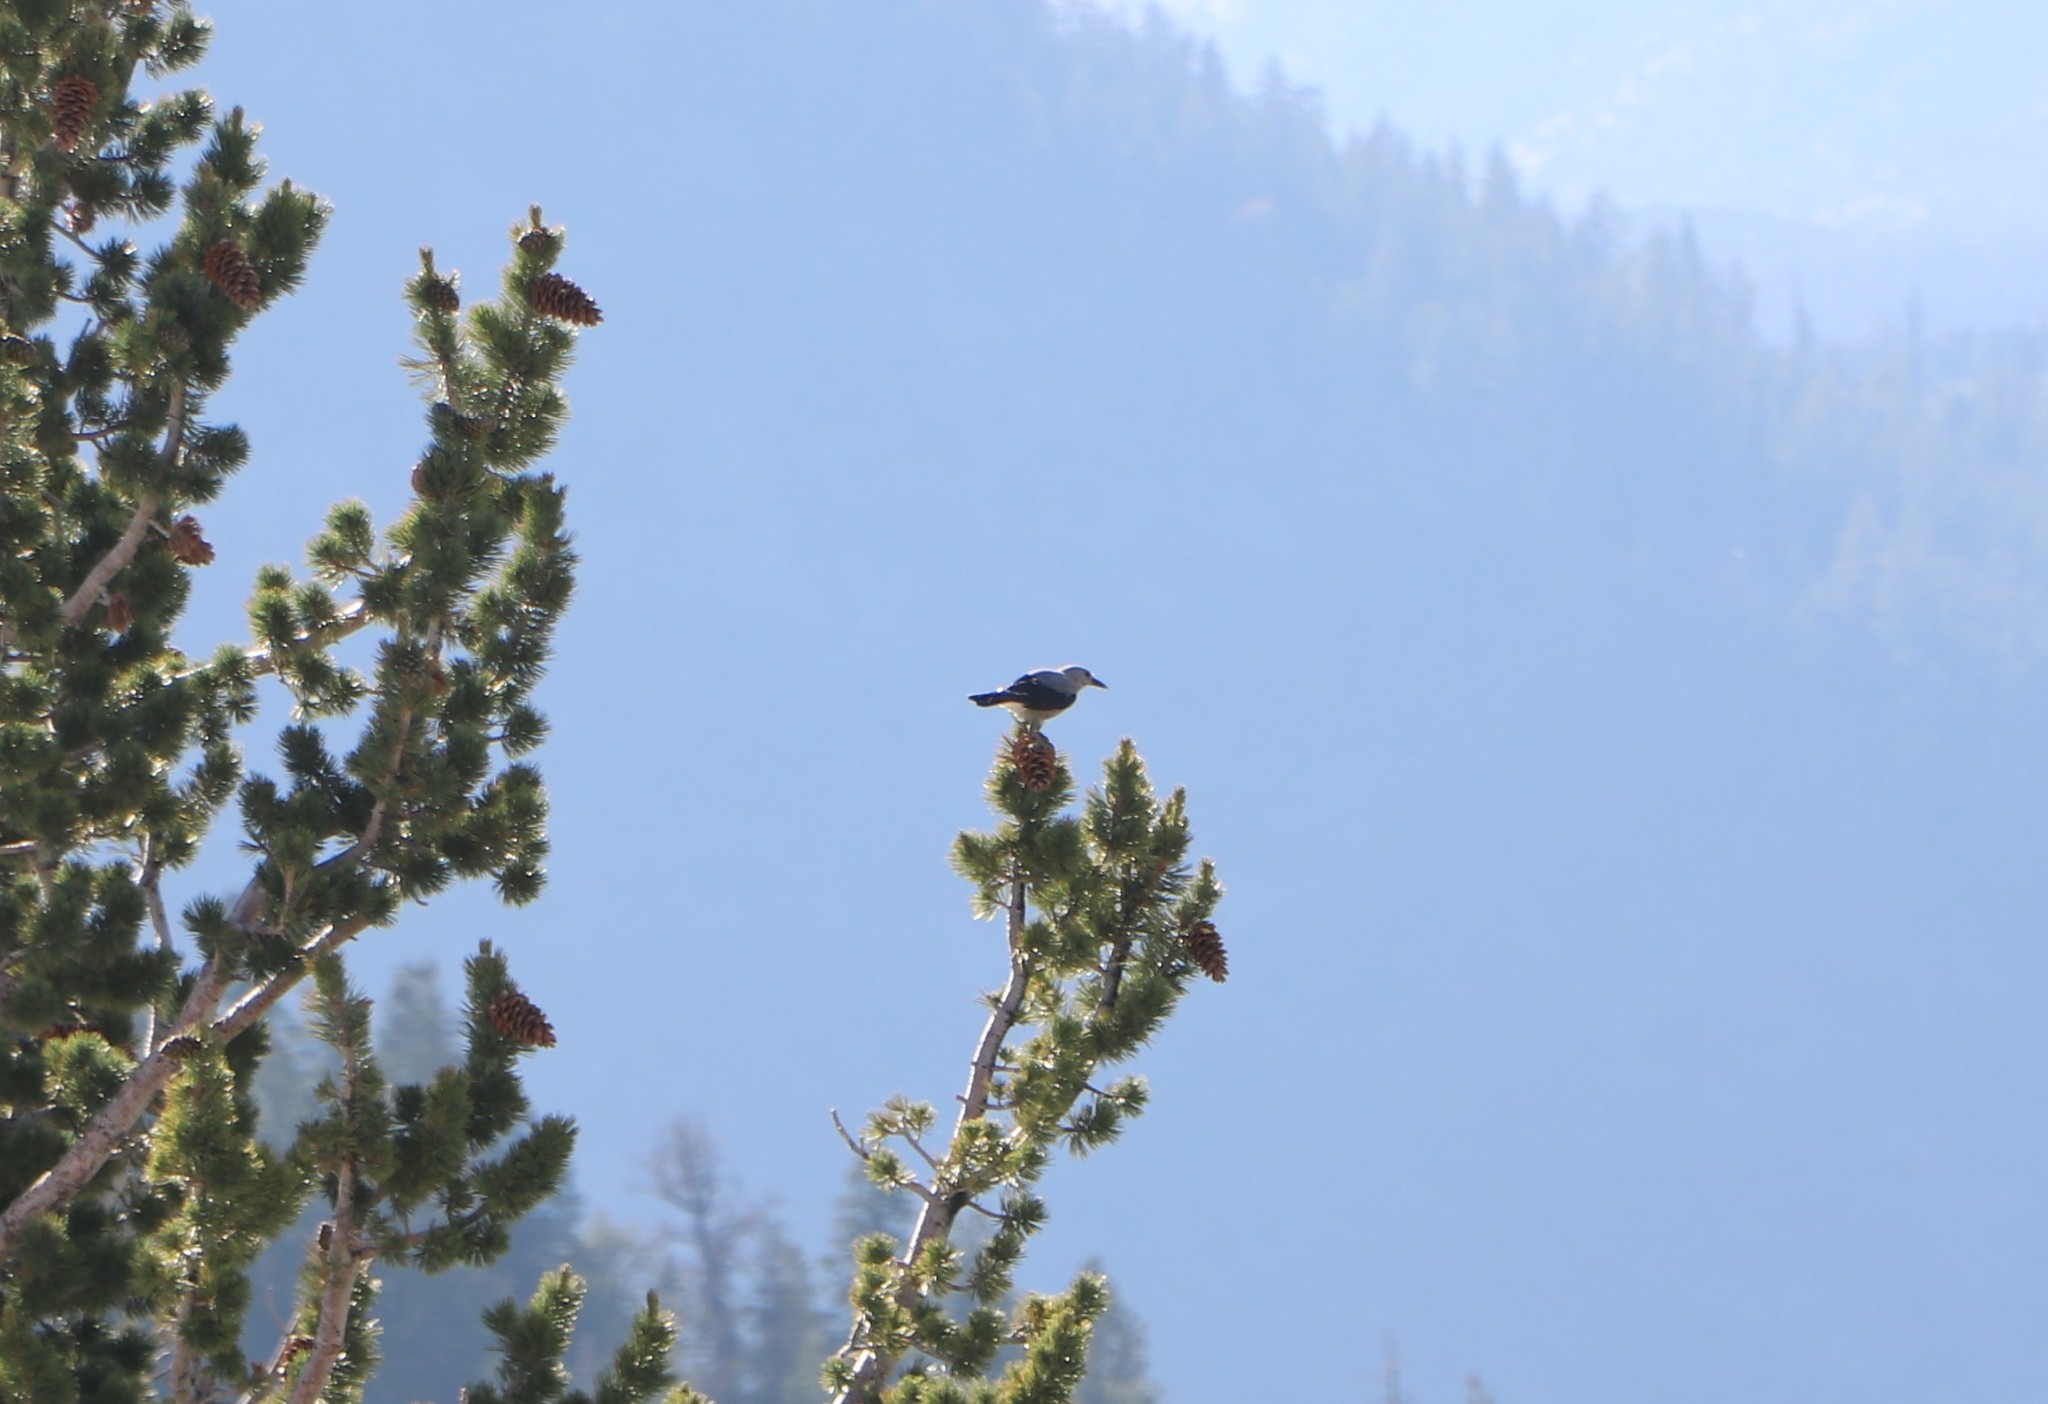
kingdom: Animalia
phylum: Chordata
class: Aves
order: Passeriformes
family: Corvidae
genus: Nucifraga
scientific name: Nucifraga columbiana
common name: Clark's nutcracker
